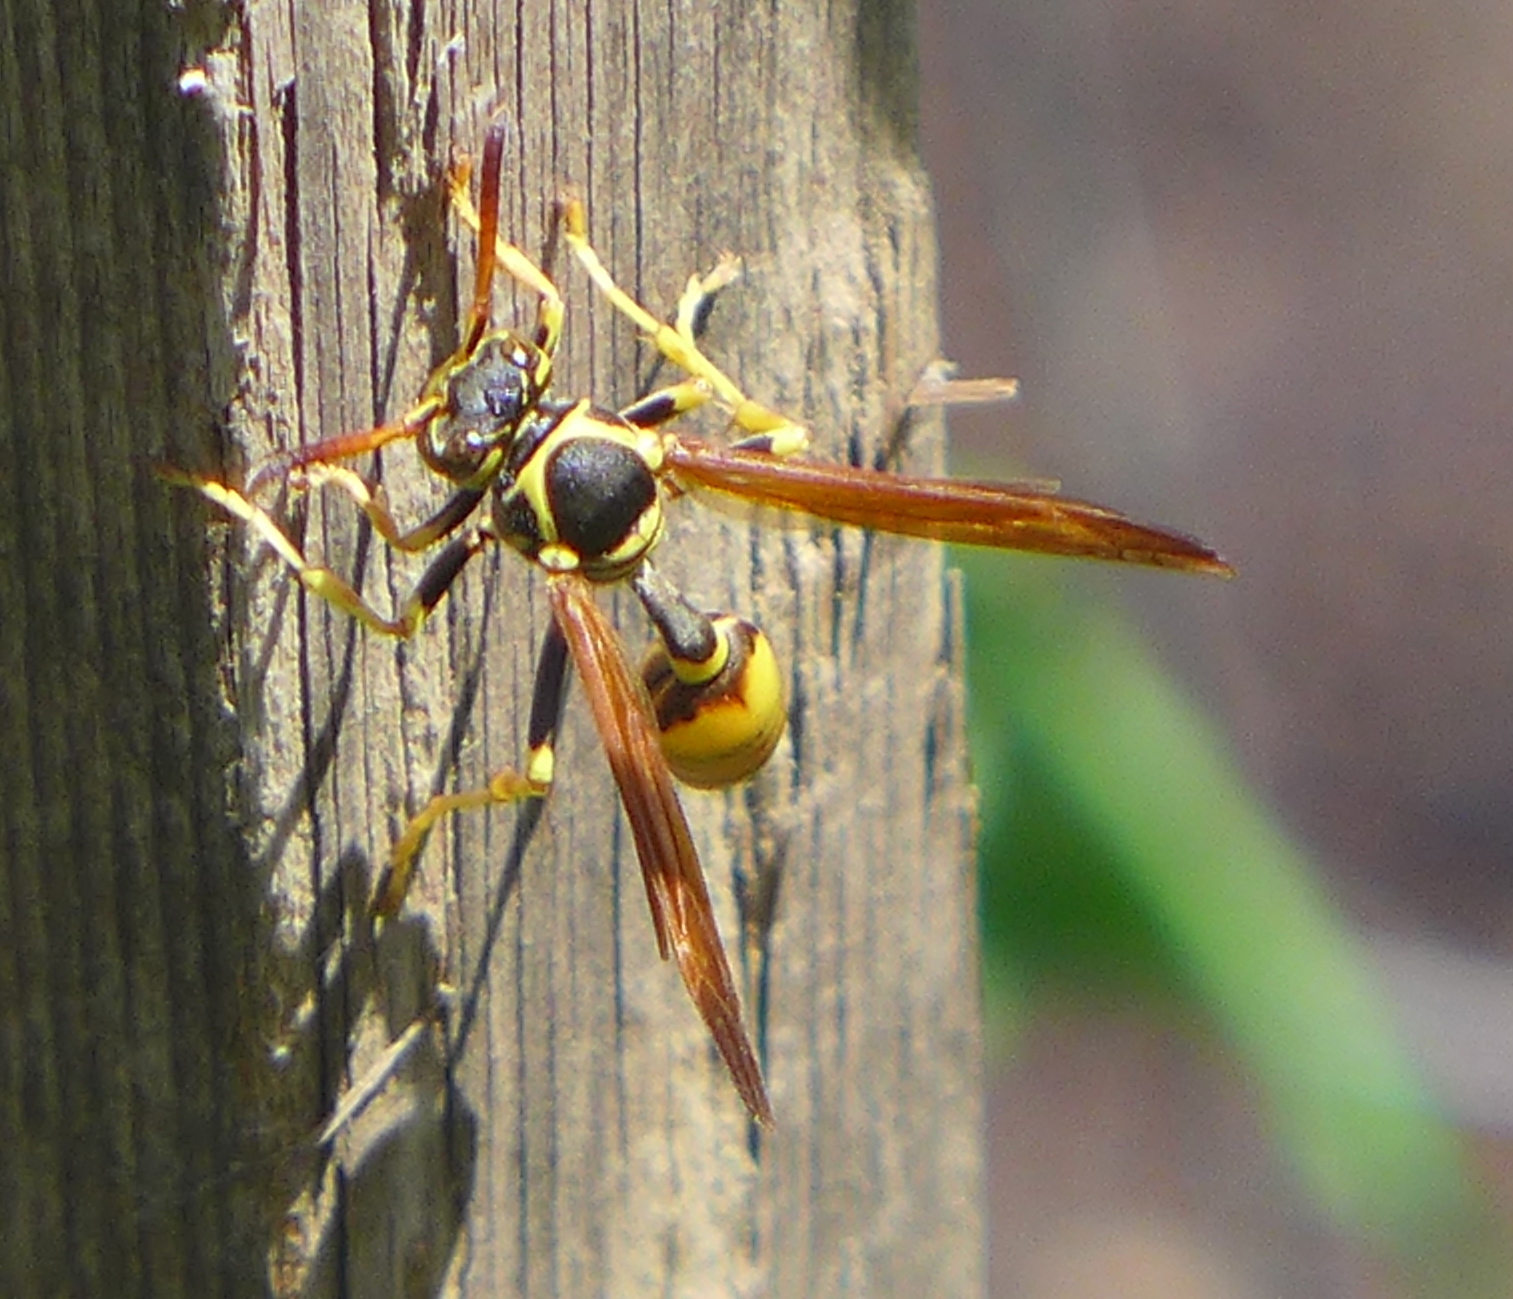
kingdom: Animalia
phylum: Arthropoda
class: Insecta
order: Hymenoptera
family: Vespidae
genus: Mischocyttarus
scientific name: Mischocyttarus flavitarsis
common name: Wasp
